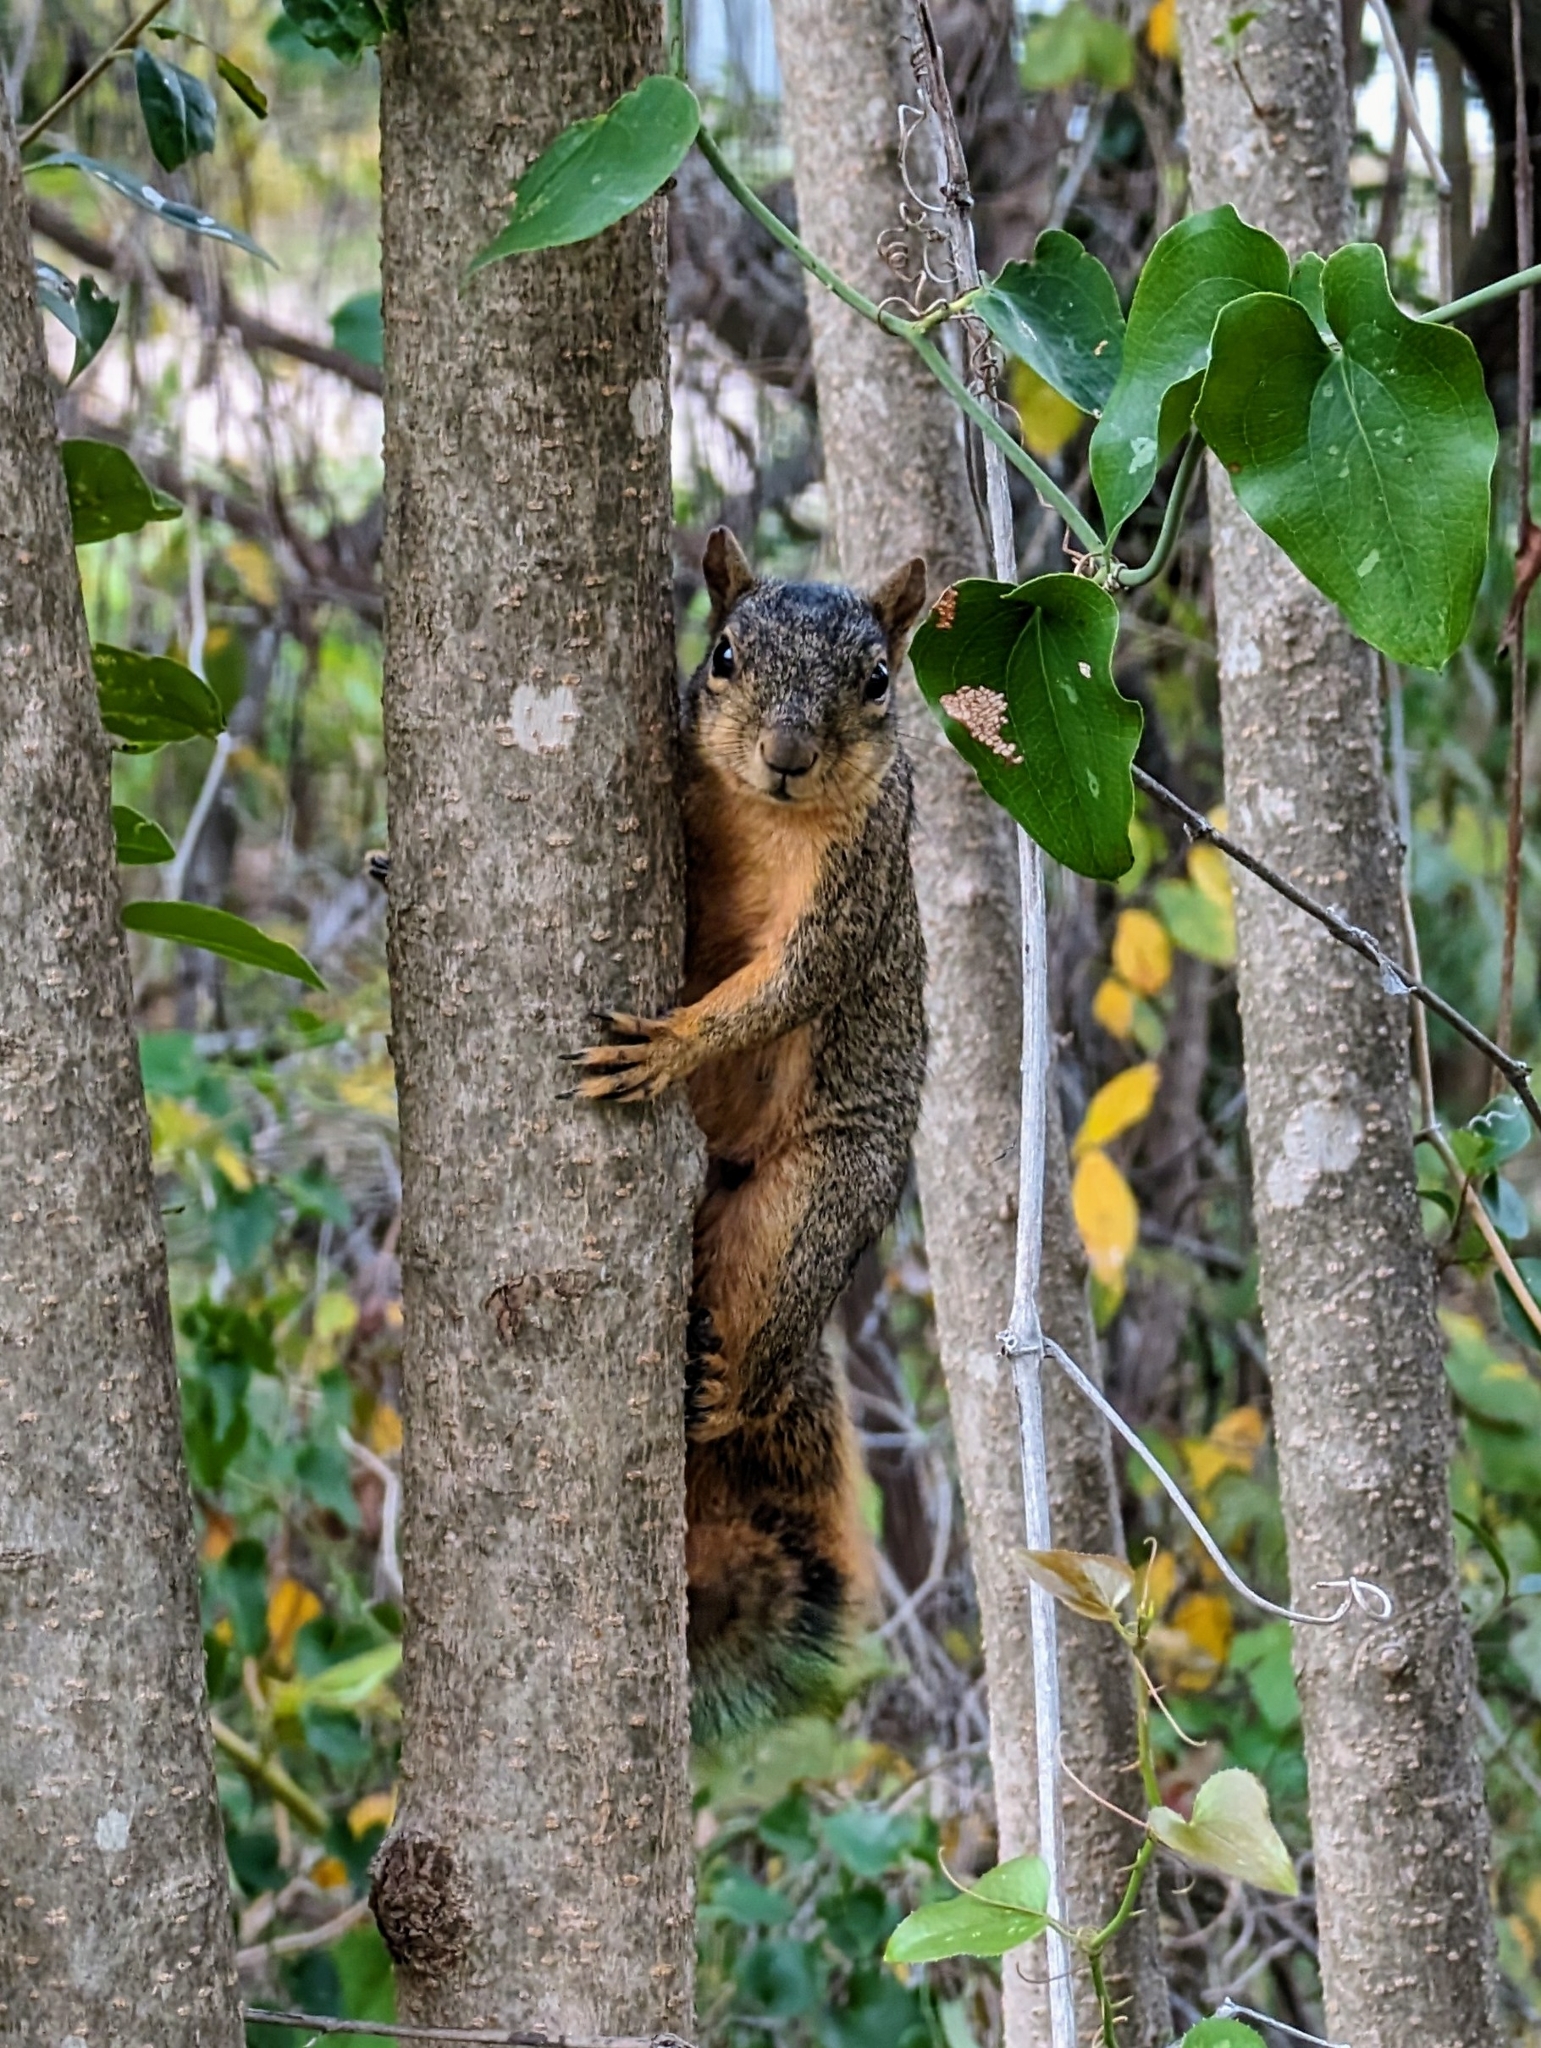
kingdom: Animalia
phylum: Chordata
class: Mammalia
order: Rodentia
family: Sciuridae
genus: Sciurus
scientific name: Sciurus niger
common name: Fox squirrel
